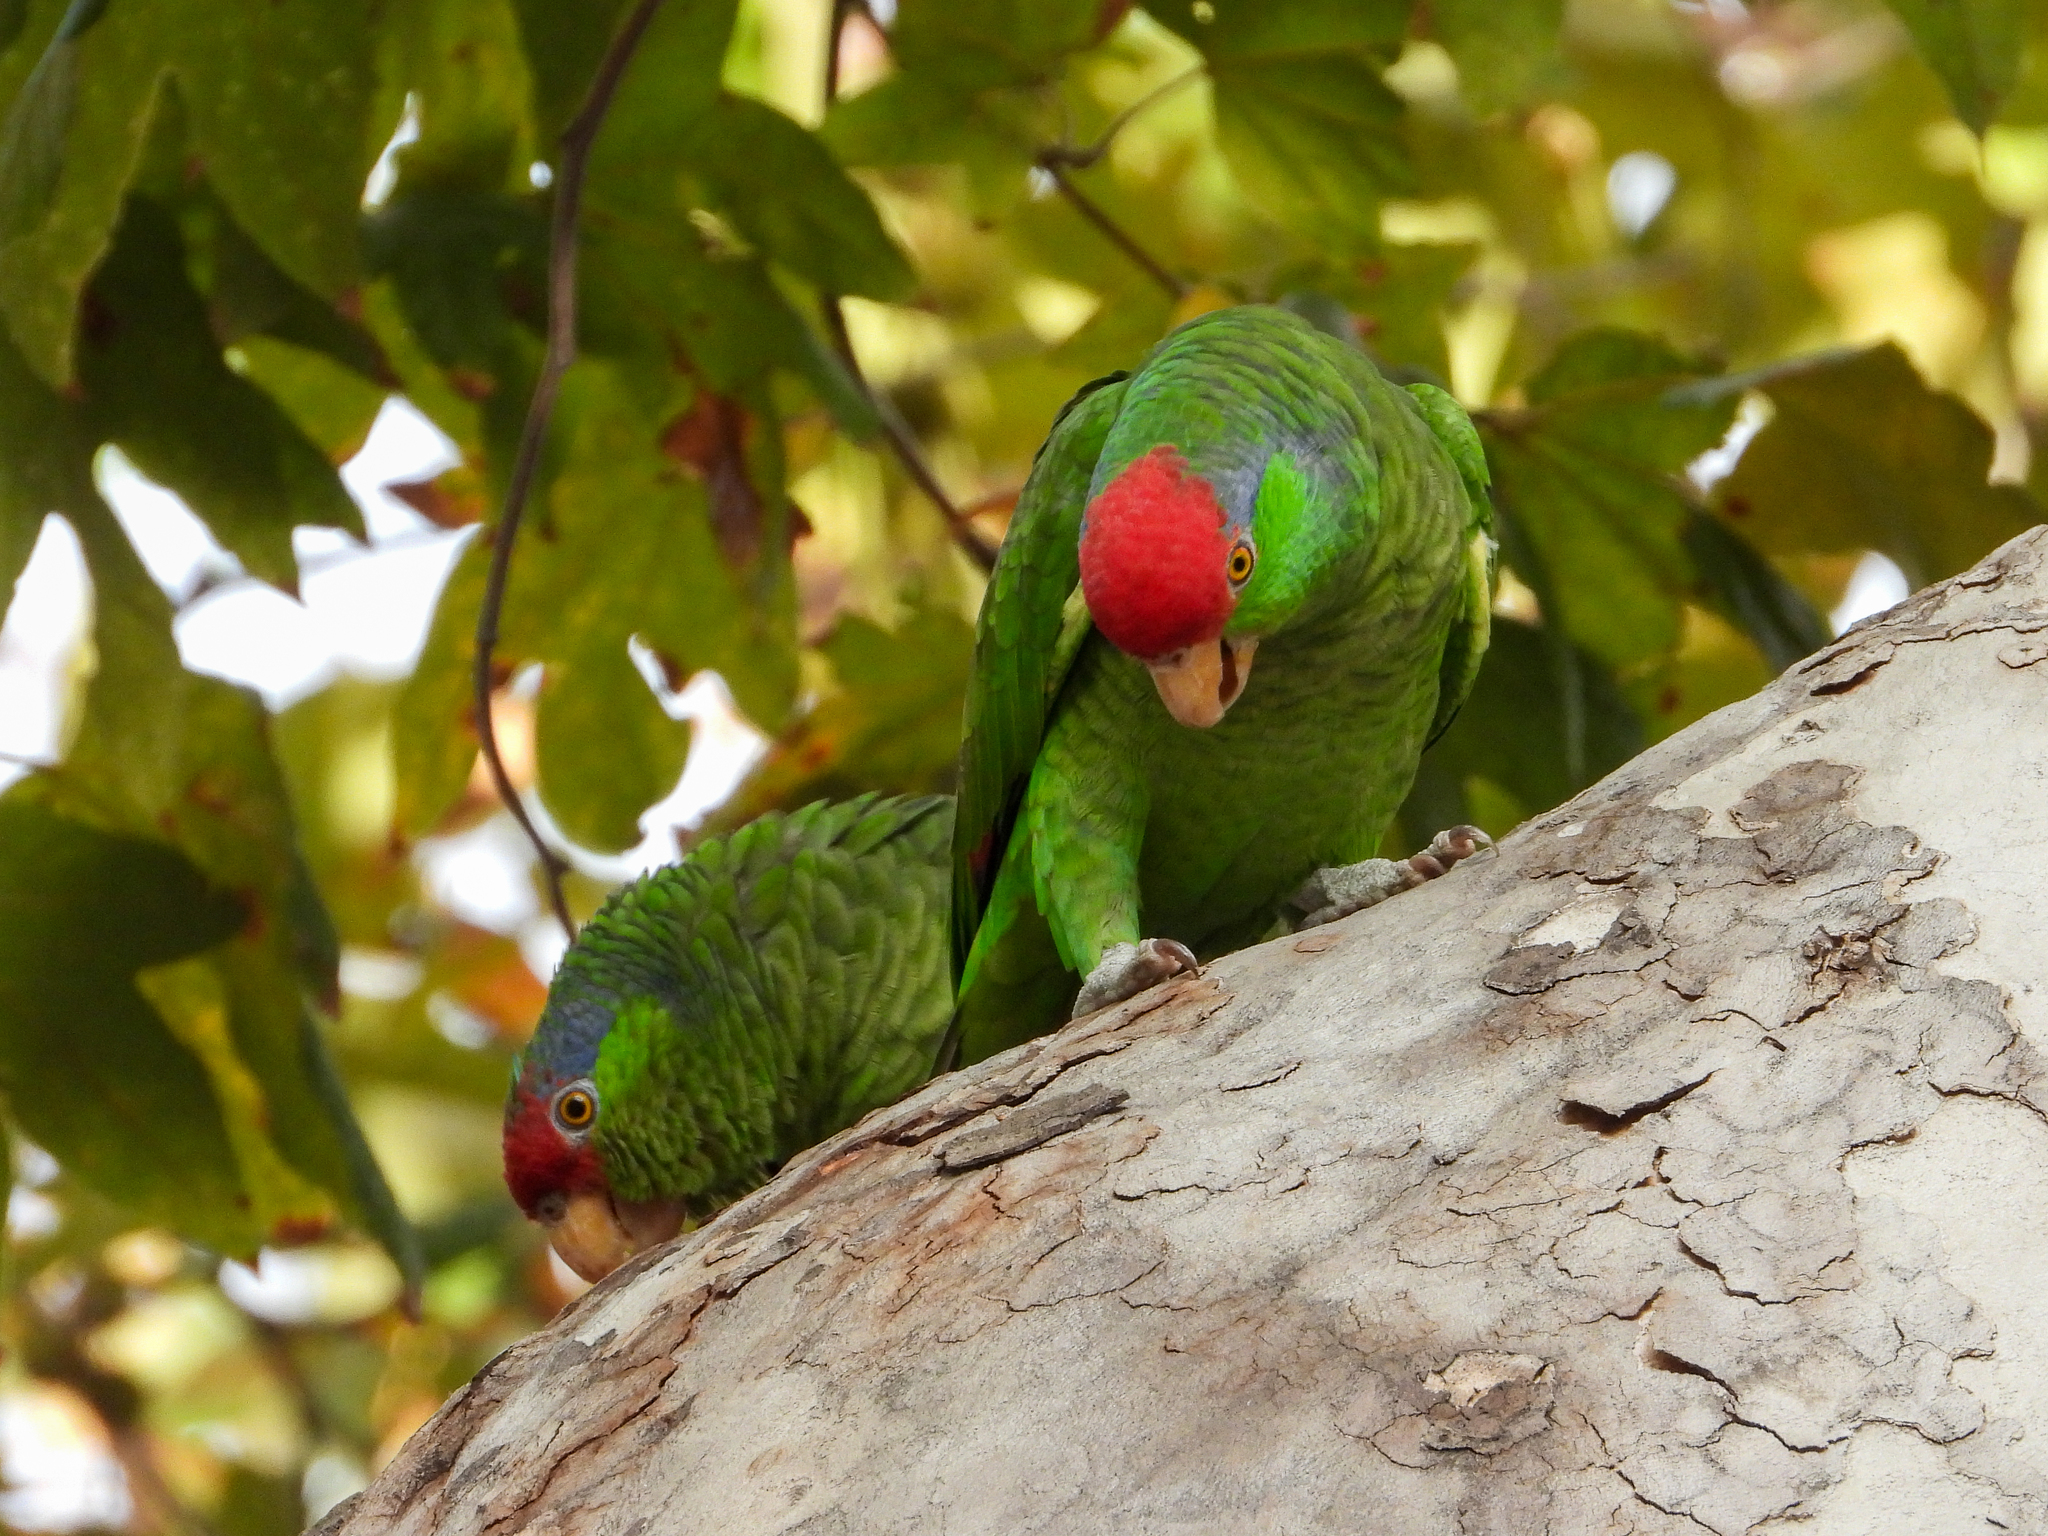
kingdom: Animalia
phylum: Chordata
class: Aves
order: Psittaciformes
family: Psittacidae
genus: Amazona
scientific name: Amazona viridigenalis
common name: Red-crowned amazon
